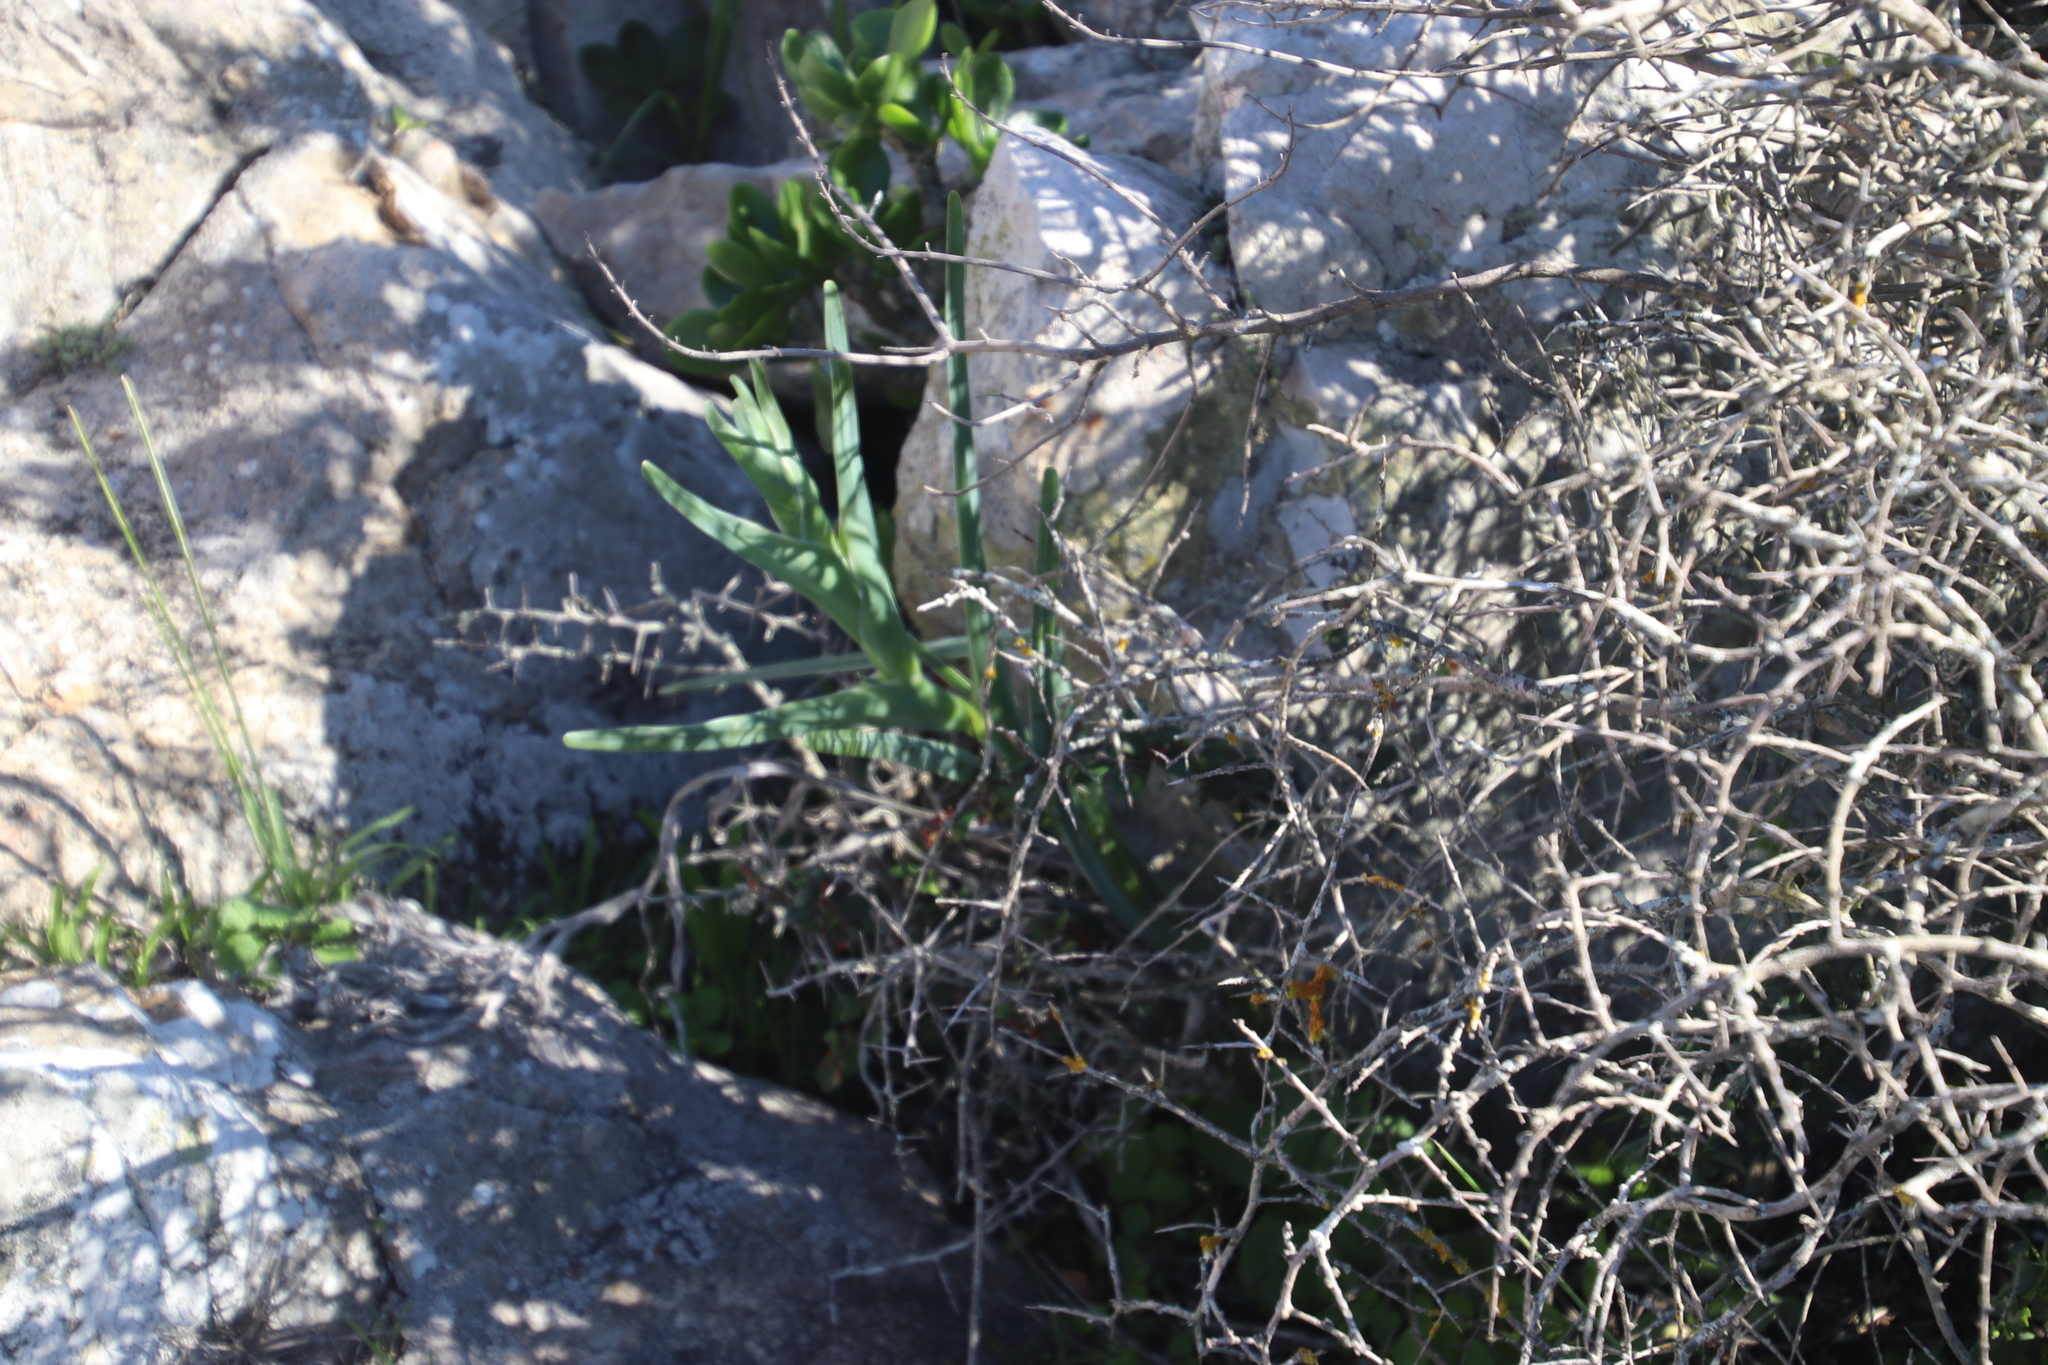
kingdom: Plantae
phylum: Tracheophyta
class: Liliopsida
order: Asparagales
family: Iridaceae
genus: Ferraria
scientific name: Ferraria crispa
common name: Black-flag
